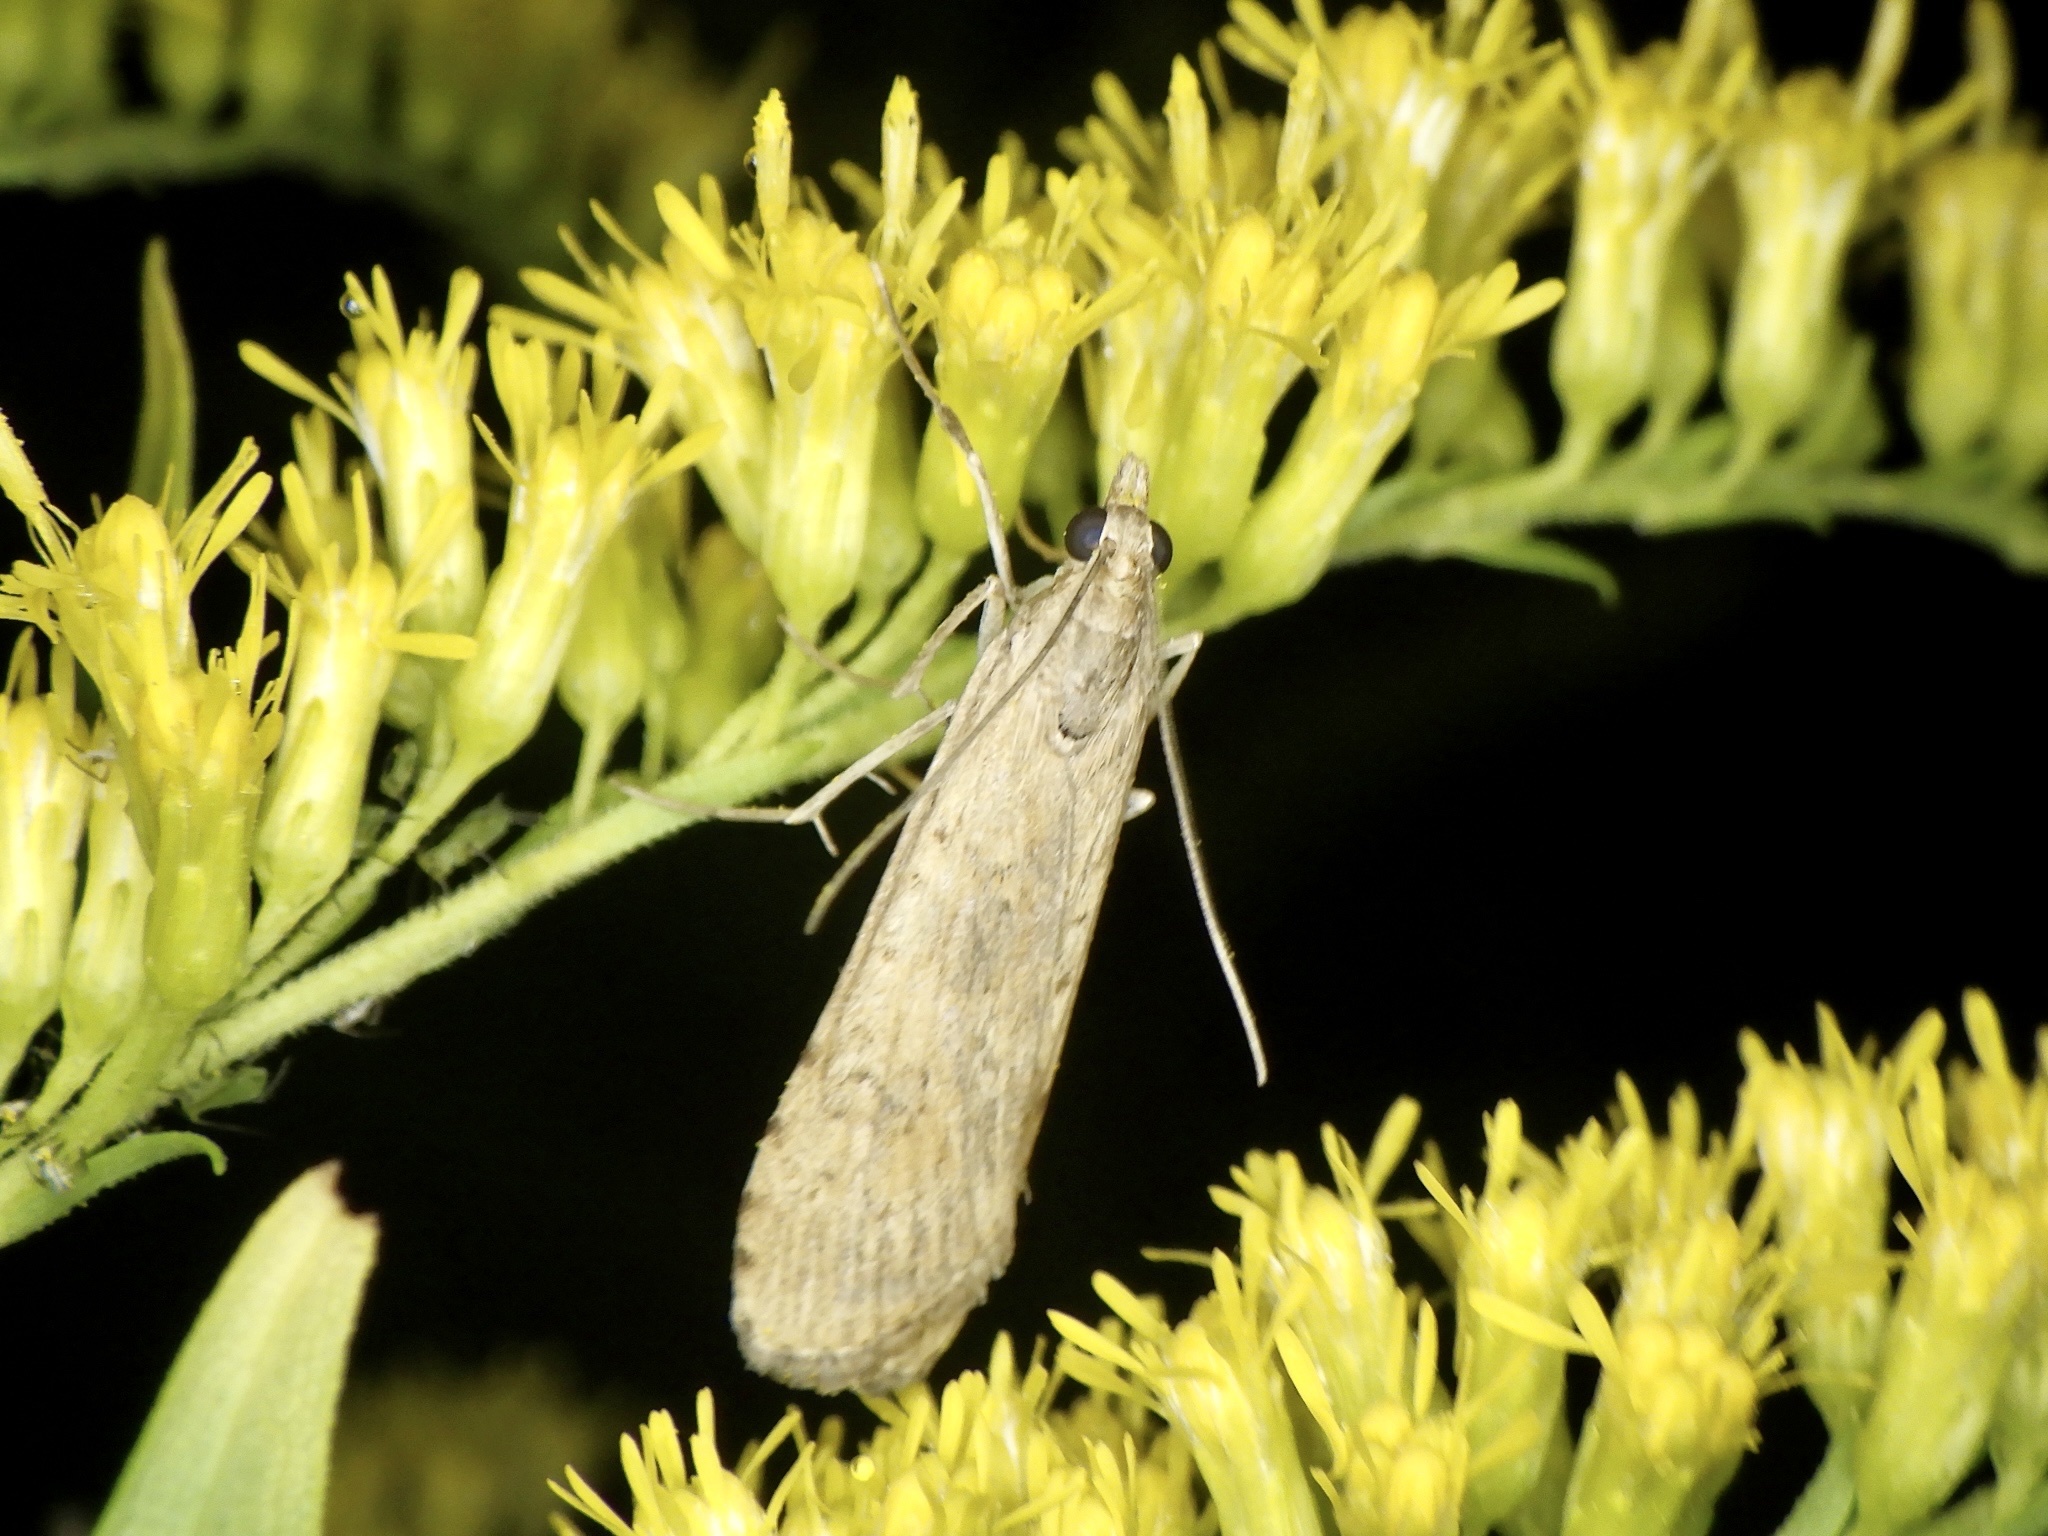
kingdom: Animalia
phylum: Arthropoda
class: Insecta
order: Lepidoptera
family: Crambidae
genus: Nomophila
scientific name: Nomophila noctuella
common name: Rush veneer
